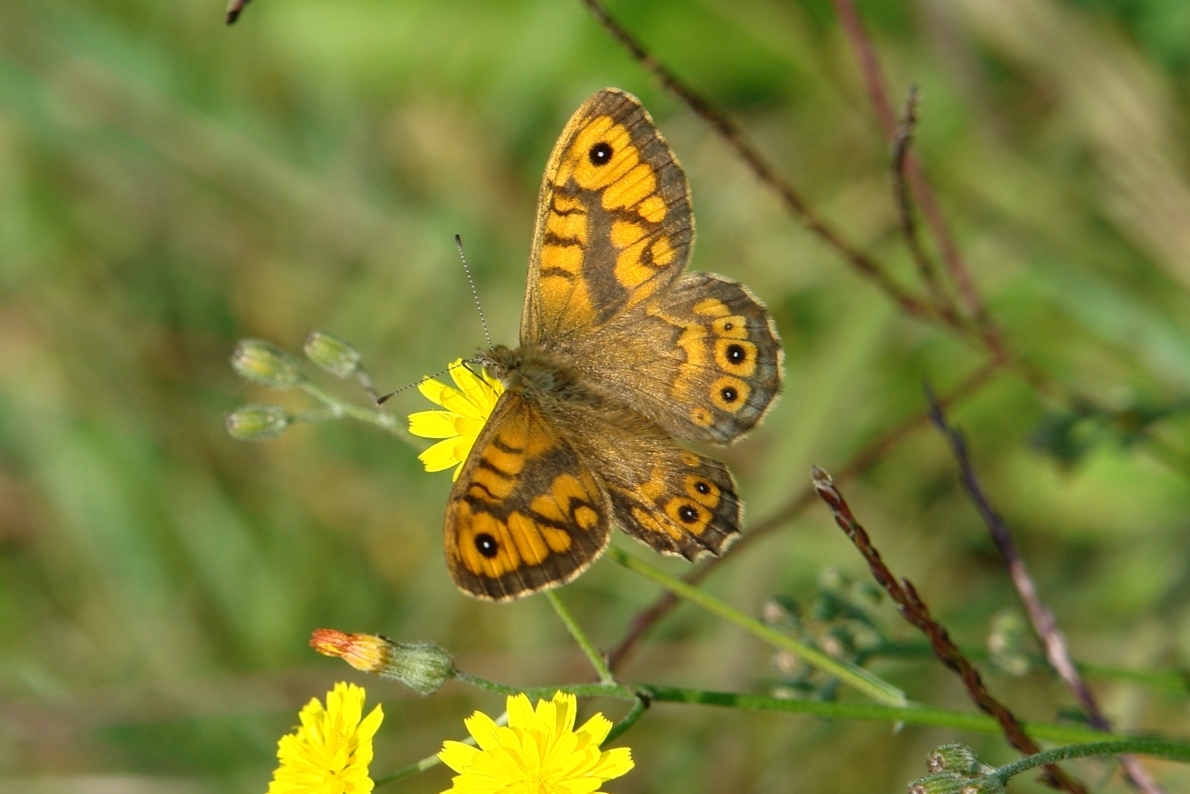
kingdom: Animalia
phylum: Arthropoda
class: Insecta
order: Lepidoptera
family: Nymphalidae
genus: Pararge
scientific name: Pararge Lasiommata megera
